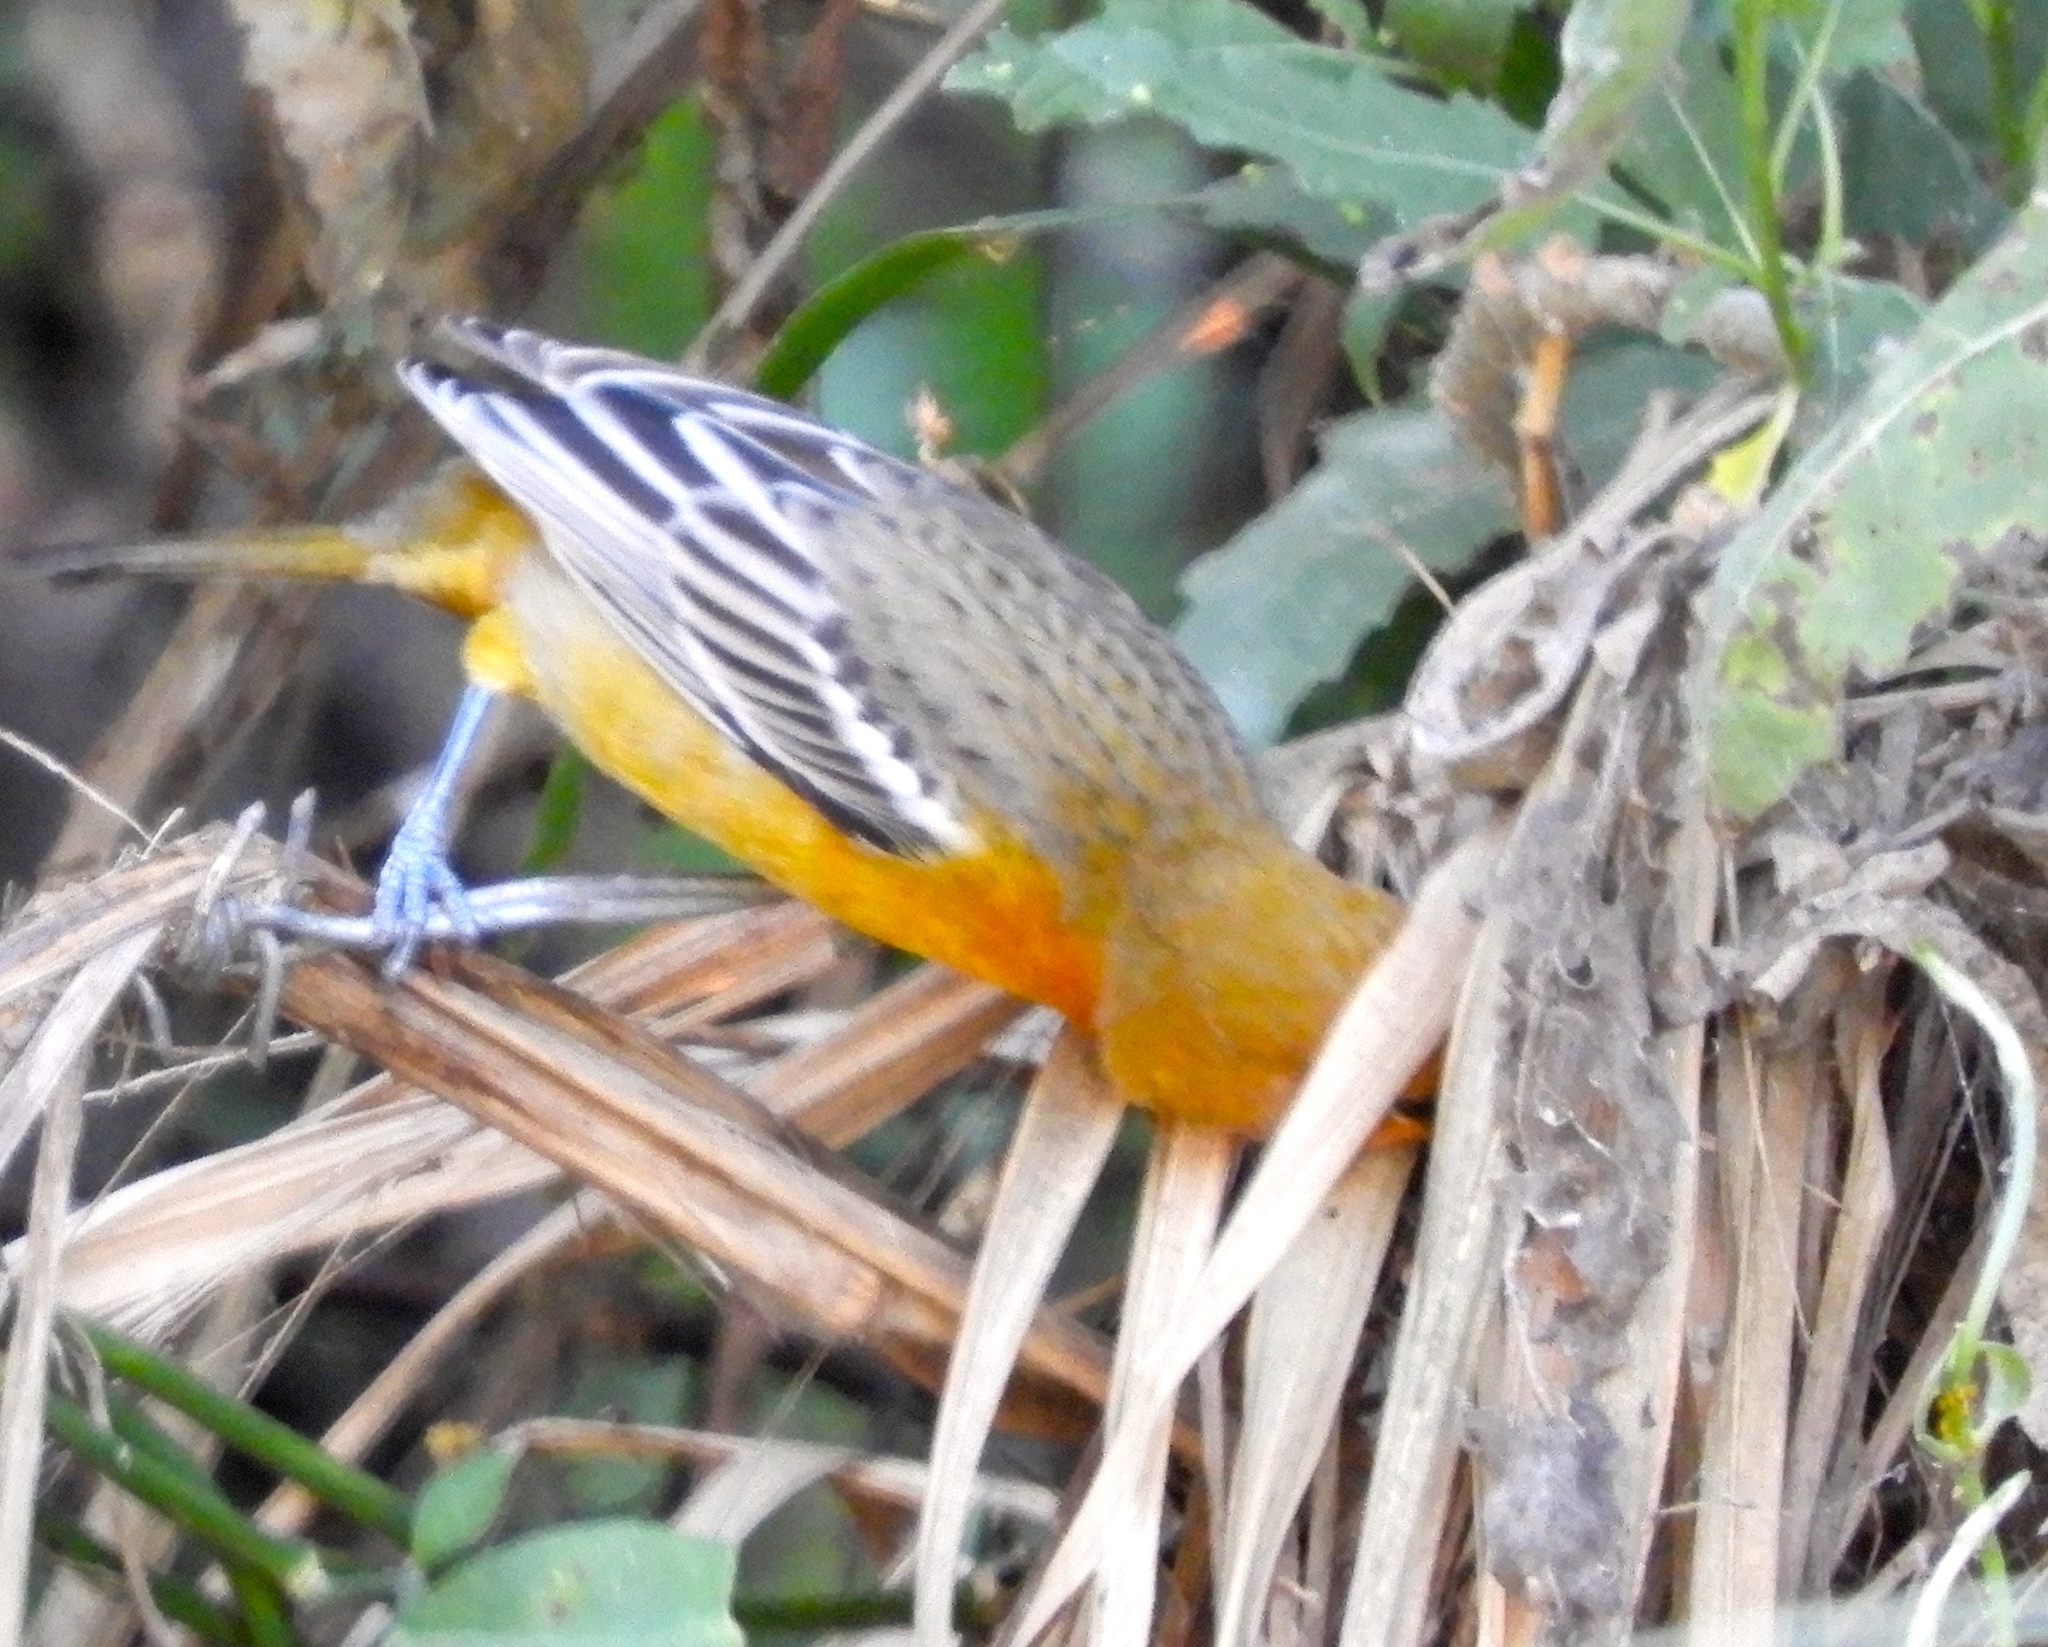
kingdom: Animalia
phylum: Chordata
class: Aves
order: Passeriformes
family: Icteridae
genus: Icterus
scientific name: Icterus pustulatus
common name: Streak-backed oriole
